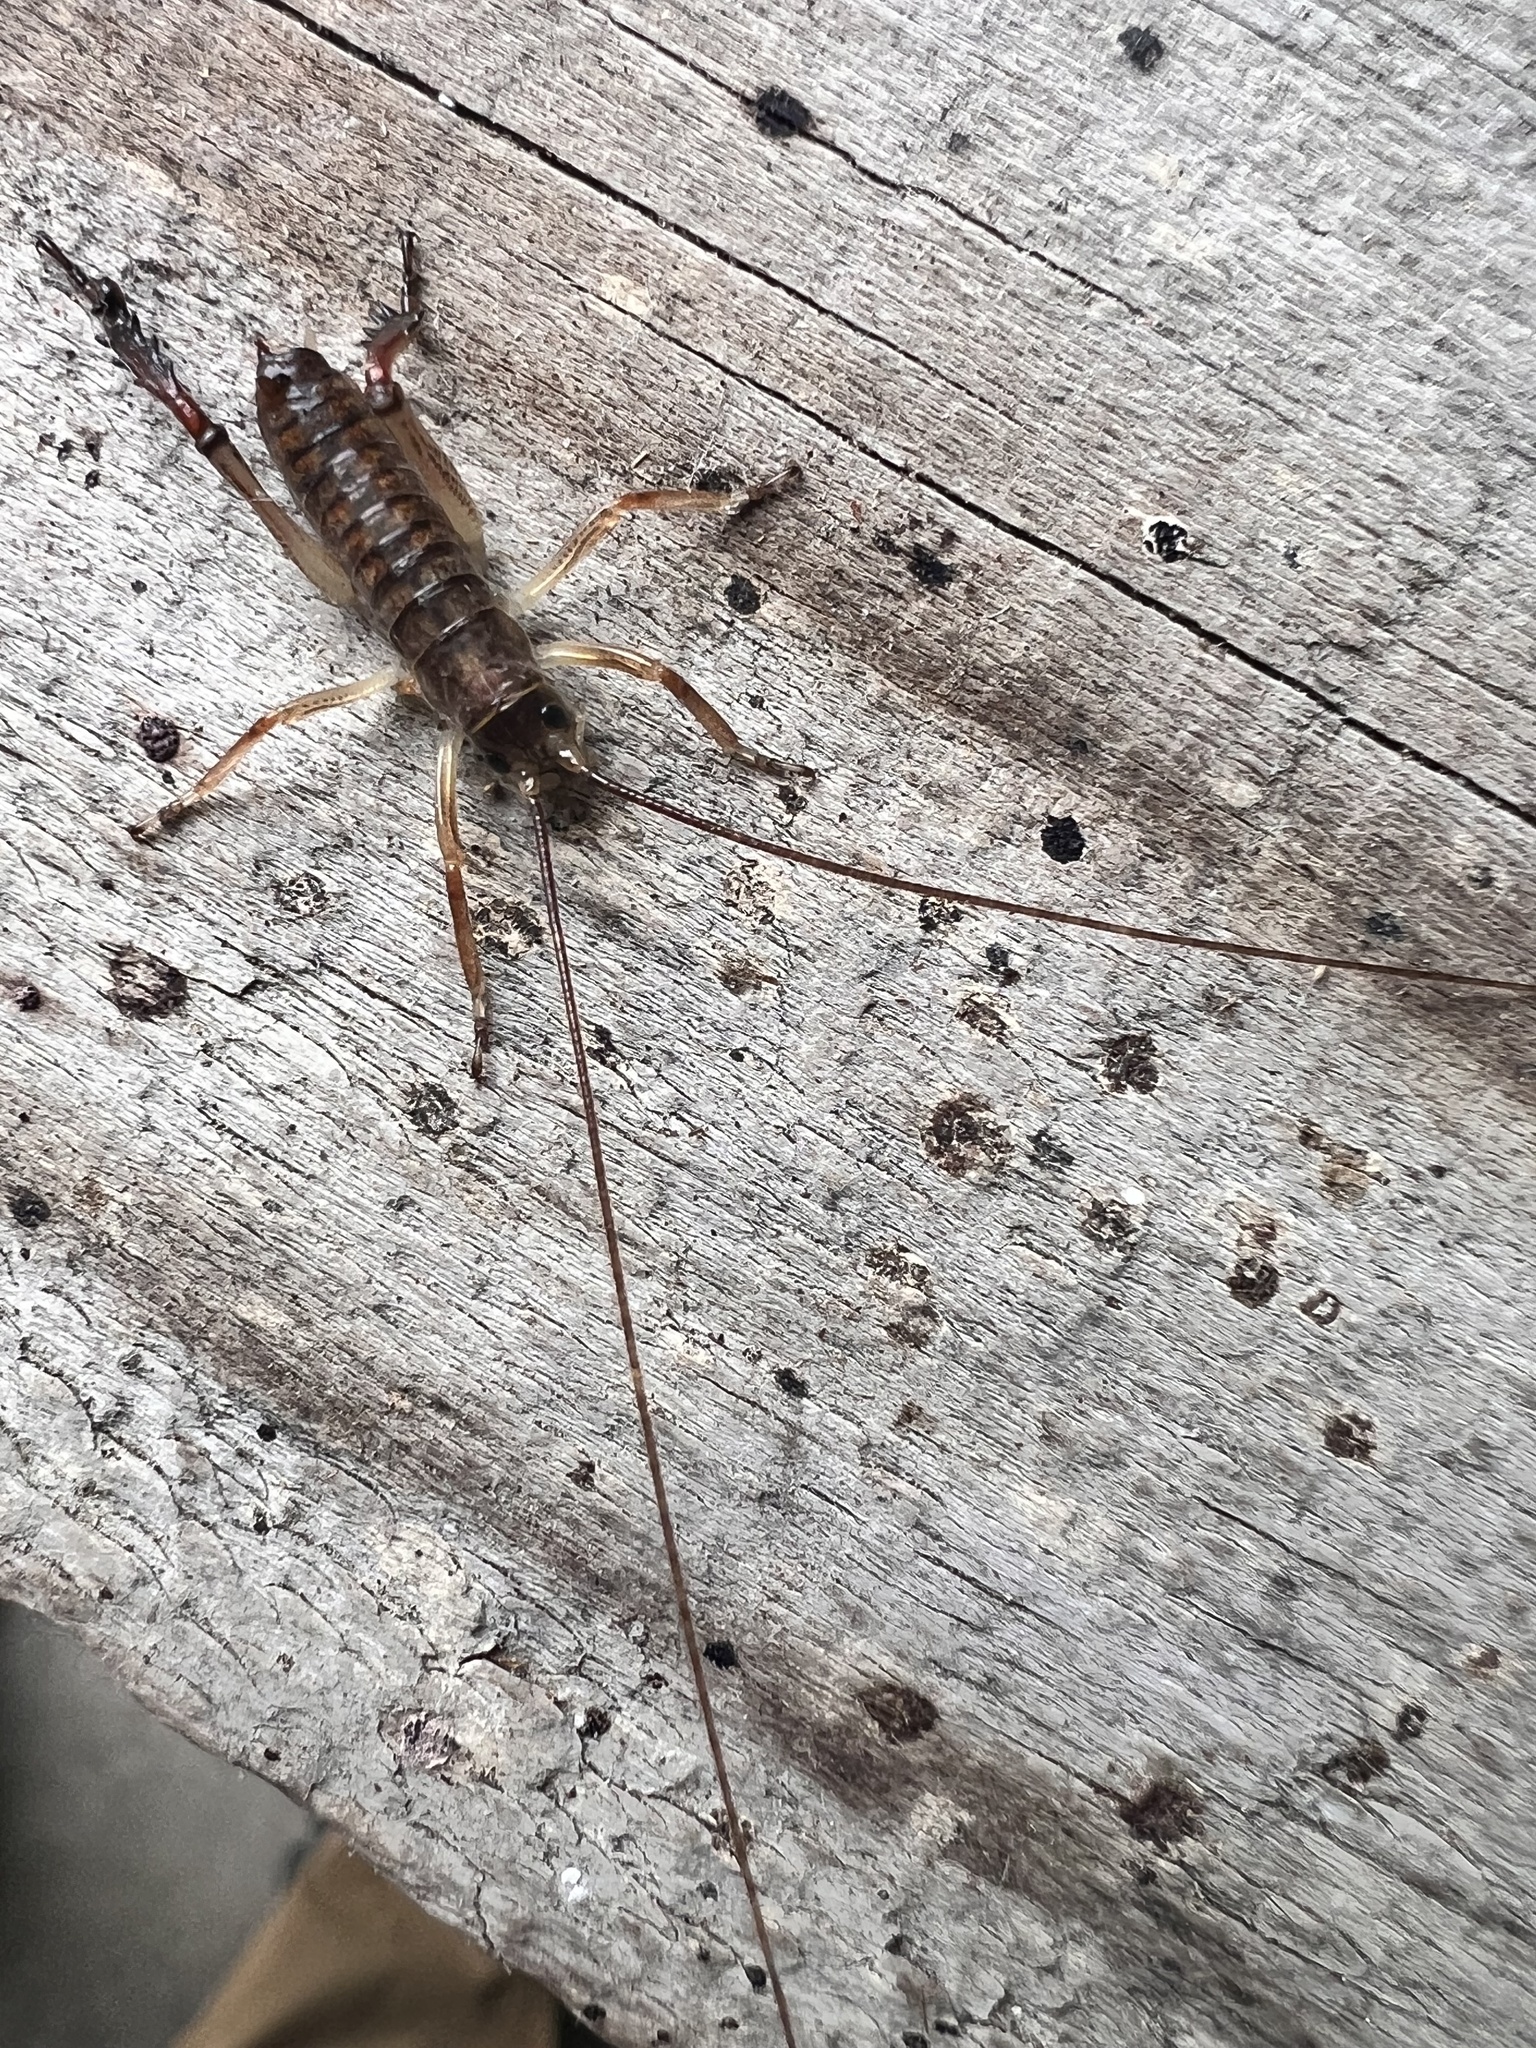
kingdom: Animalia
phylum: Arthropoda
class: Insecta
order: Orthoptera
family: Anostostomatidae
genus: Hemideina
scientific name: Hemideina thoracica
